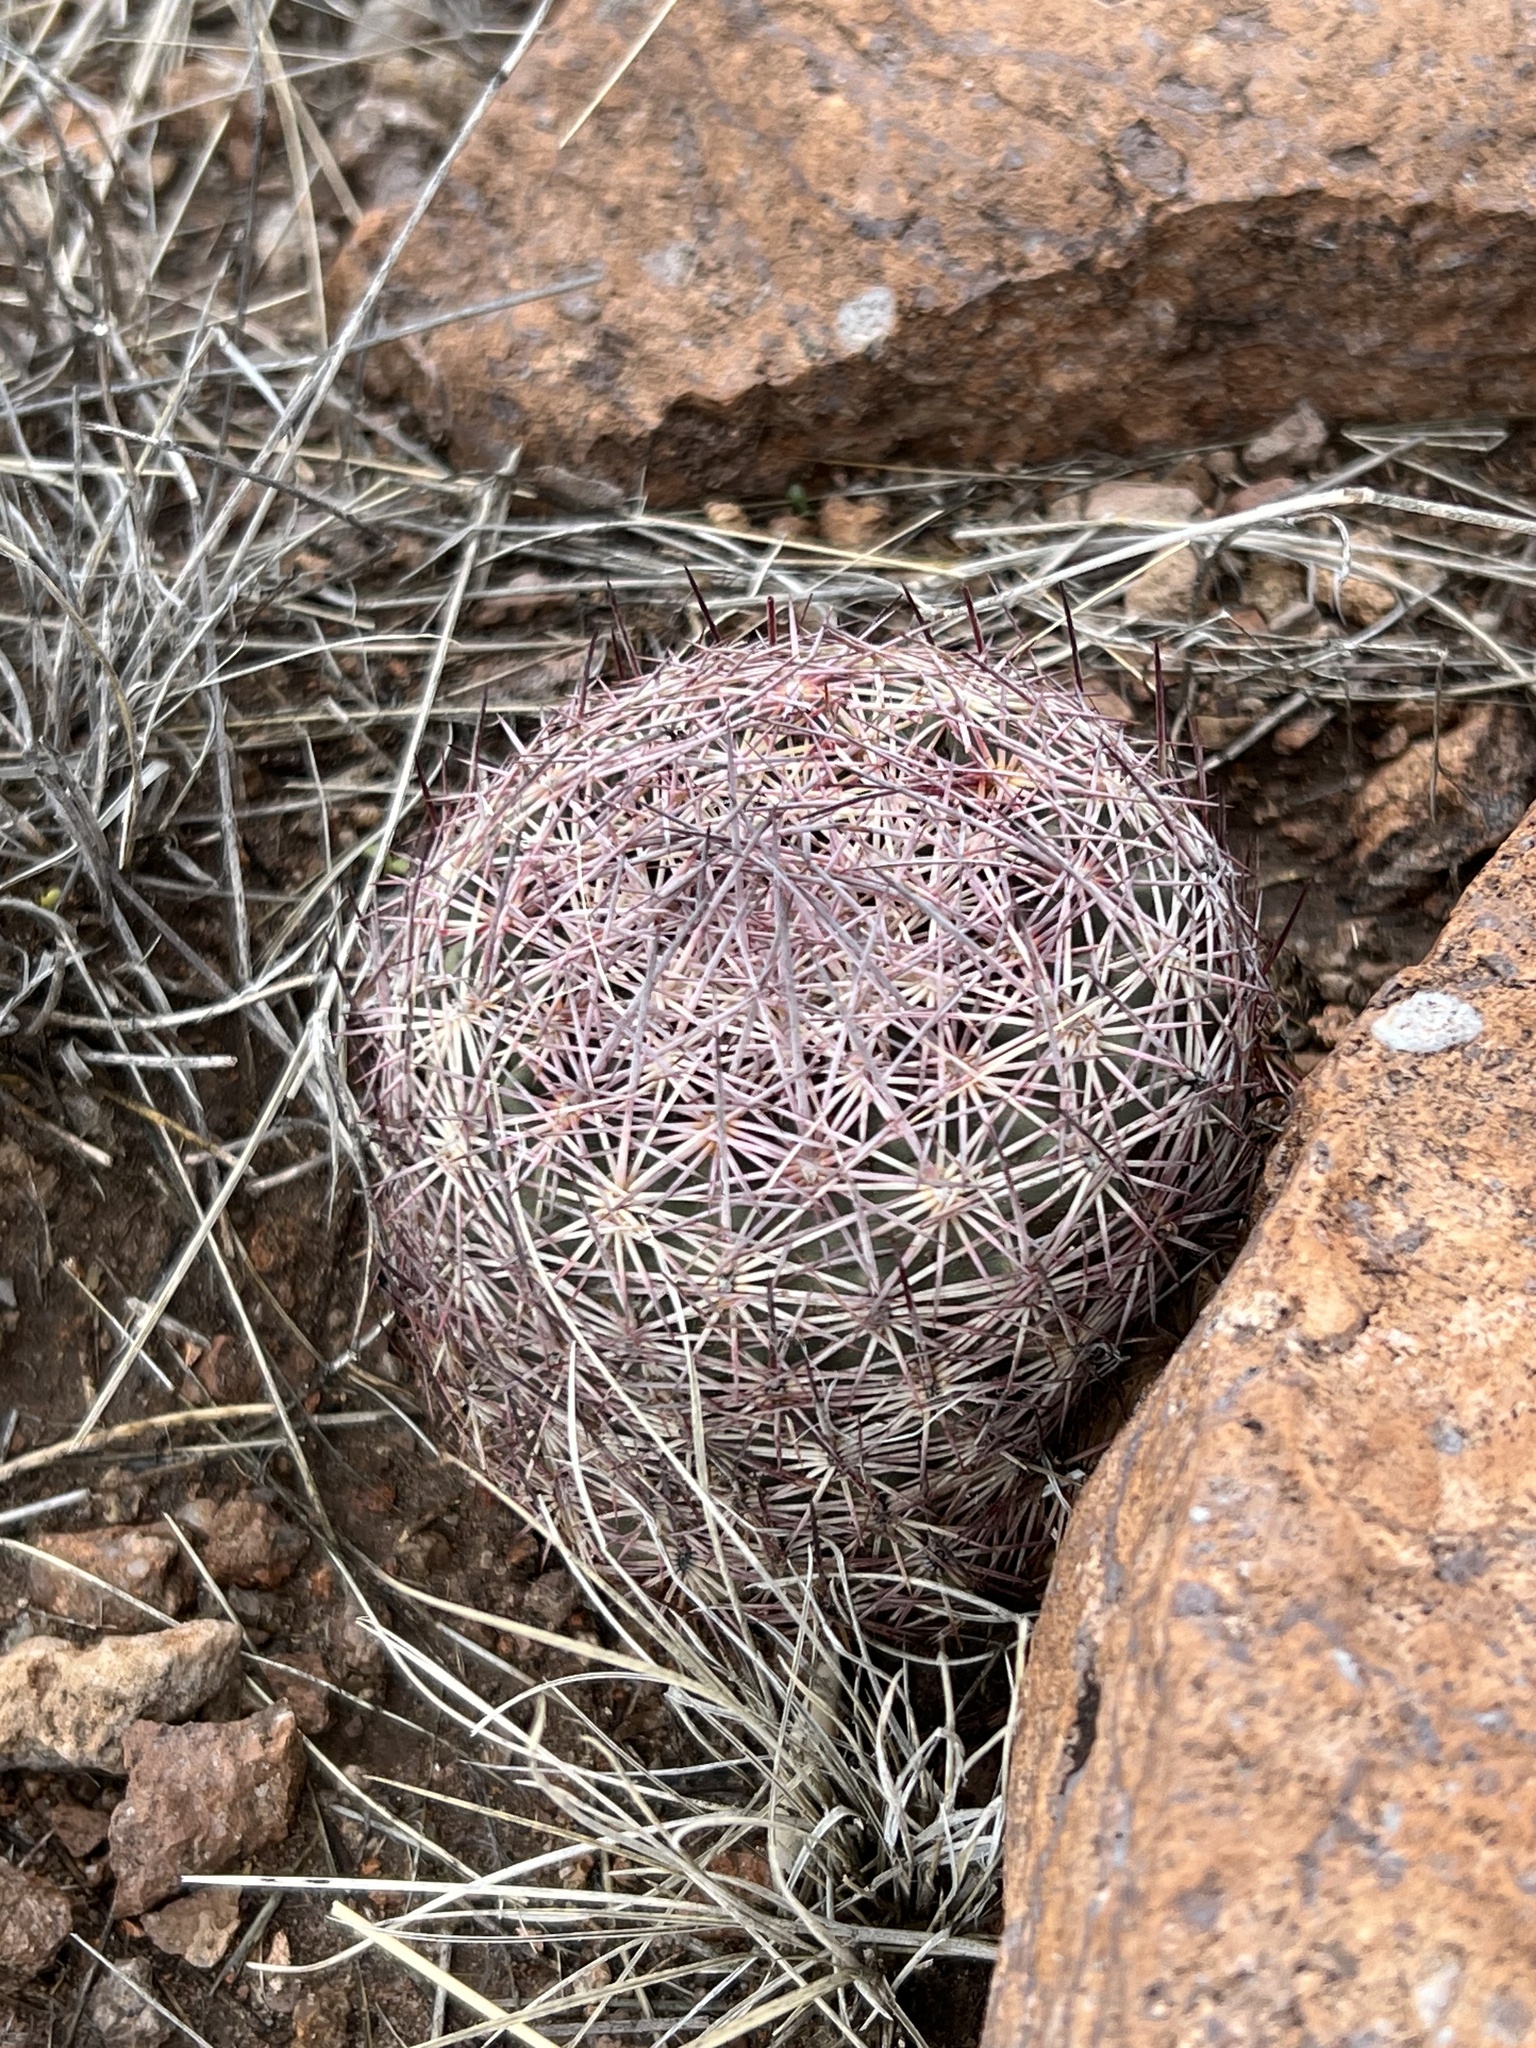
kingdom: Plantae
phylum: Tracheophyta
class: Magnoliopsida
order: Caryophyllales
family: Cactaceae
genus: Sclerocactus
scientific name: Sclerocactus johnsonii
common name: Eight-spine fishhook cactus
